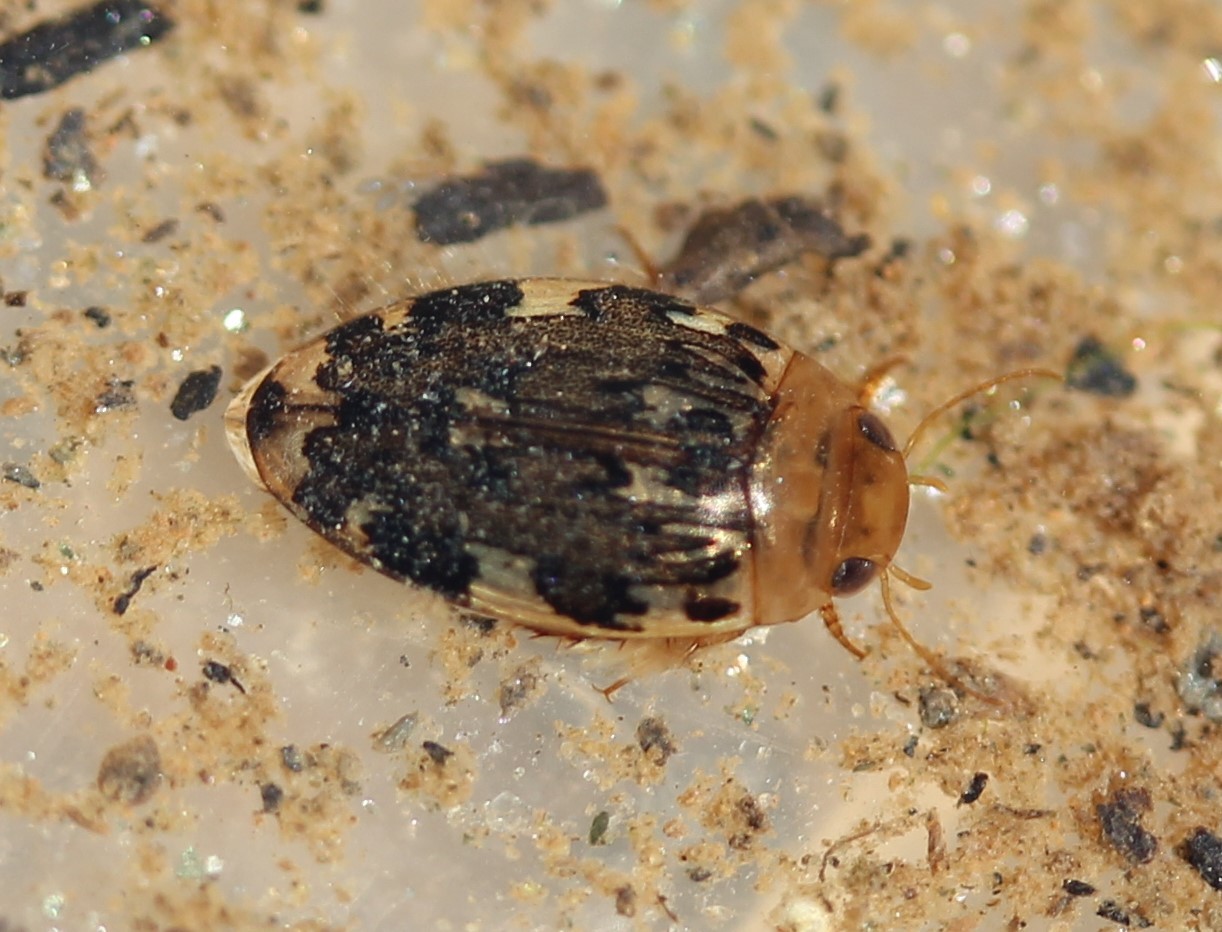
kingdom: Animalia
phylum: Arthropoda
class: Insecta
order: Coleoptera
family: Dytiscidae
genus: Laccophilus
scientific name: Laccophilus maculosus
